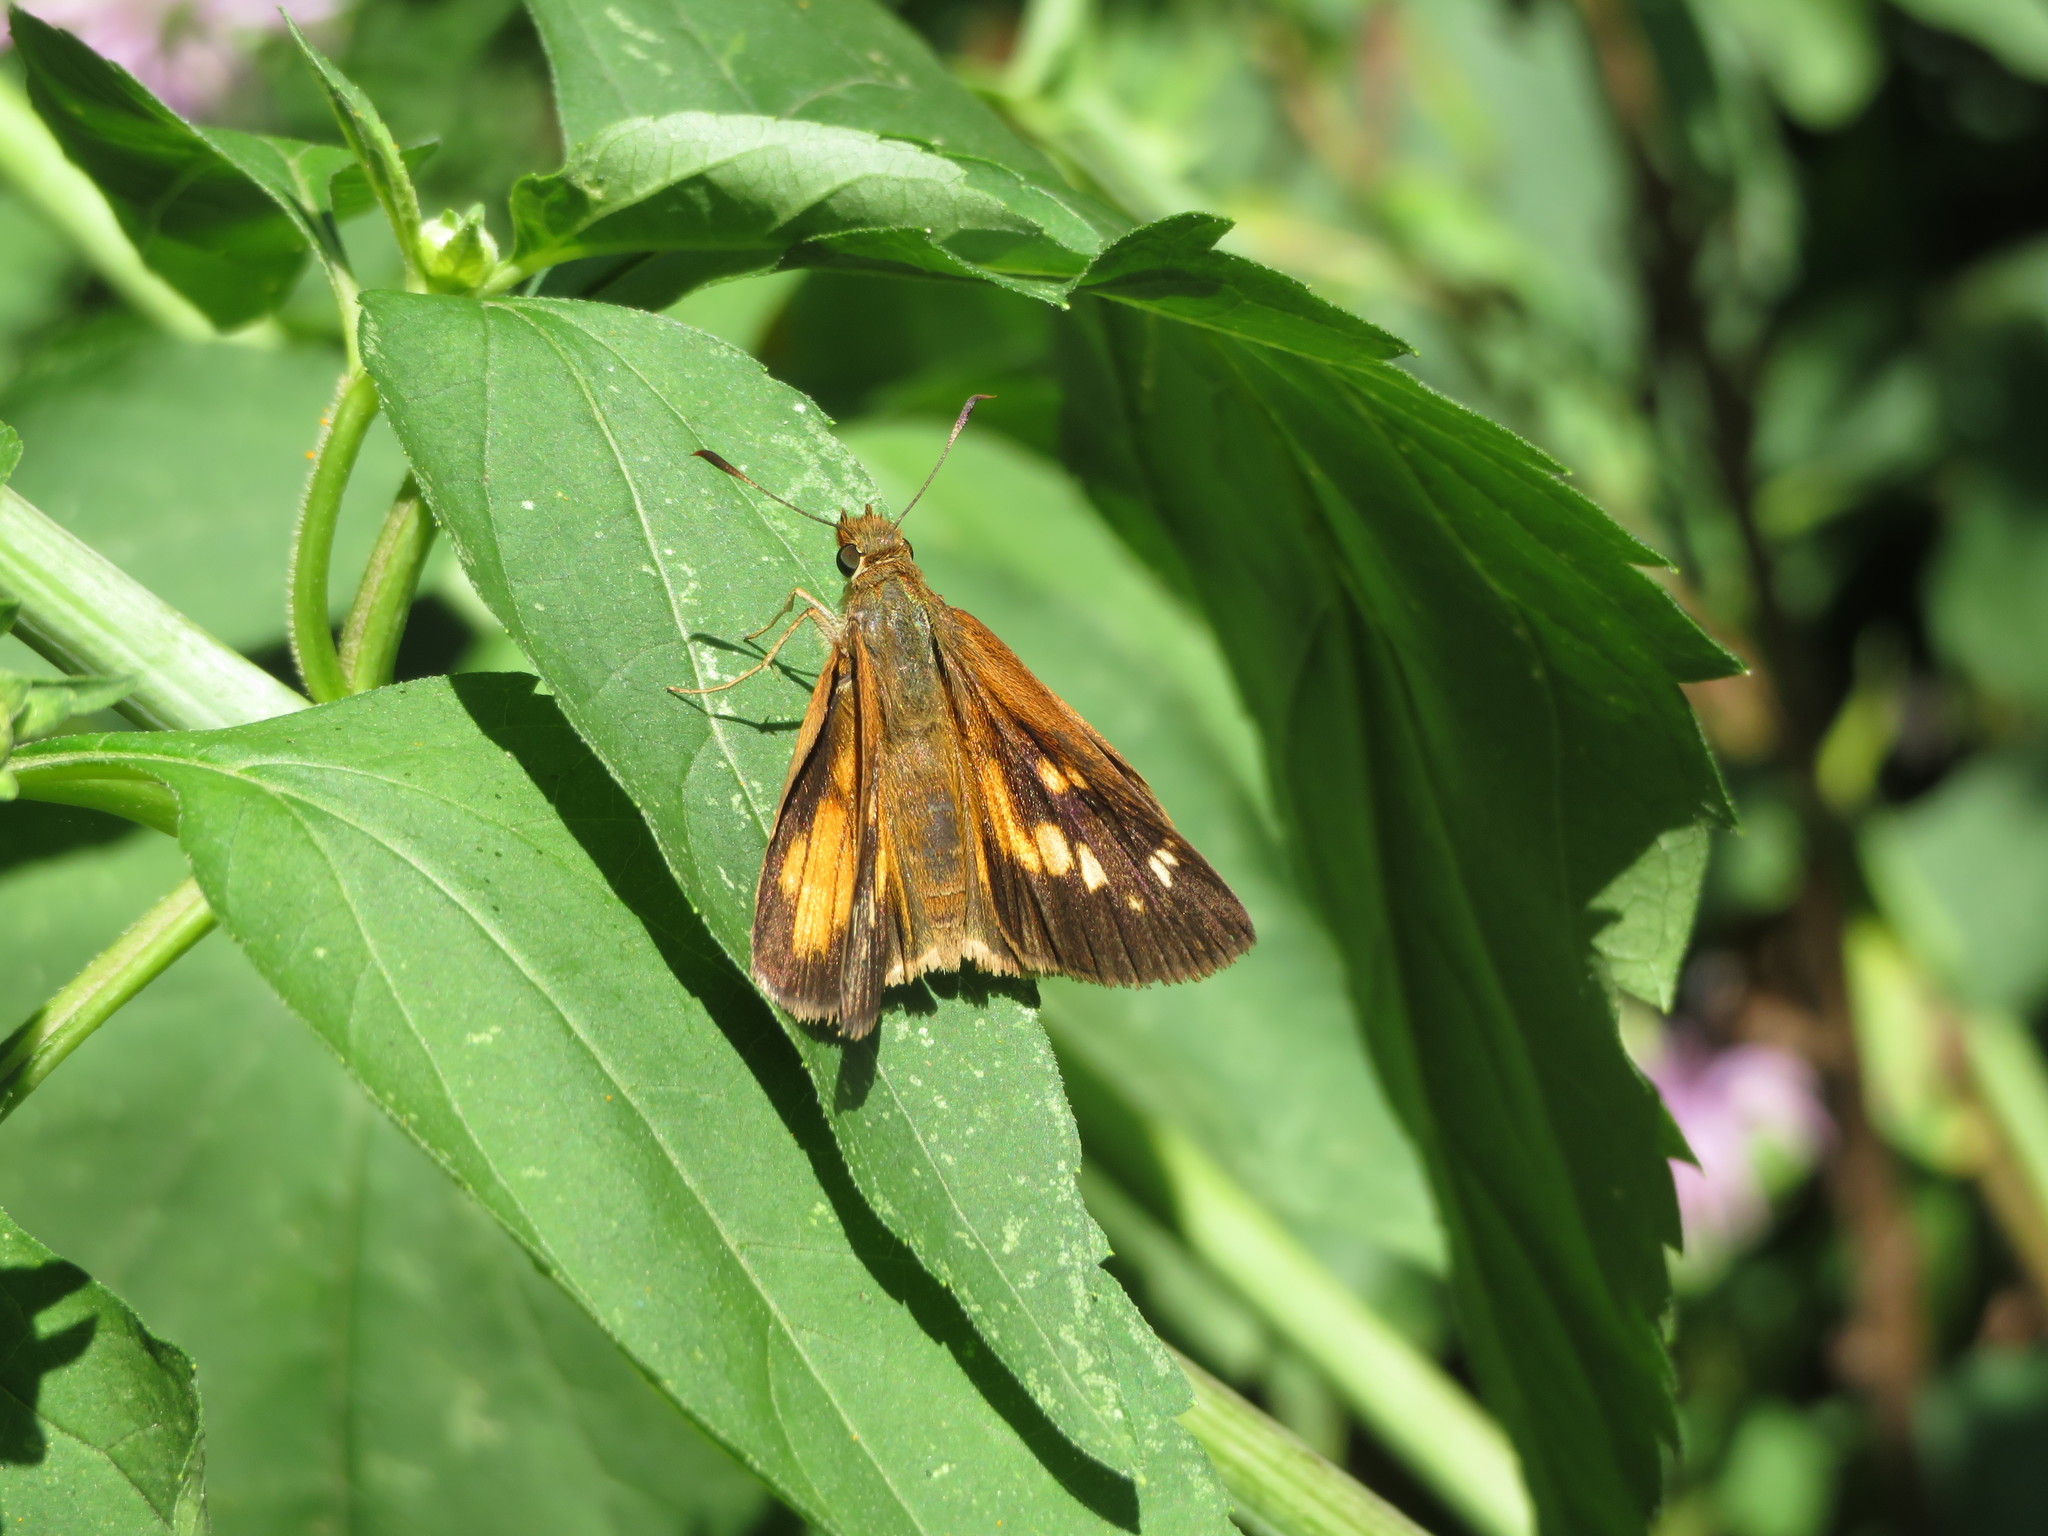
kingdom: Animalia
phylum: Arthropoda
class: Insecta
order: Lepidoptera
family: Hesperiidae
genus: Poanes
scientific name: Poanes viator
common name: Broad-winged skipper
